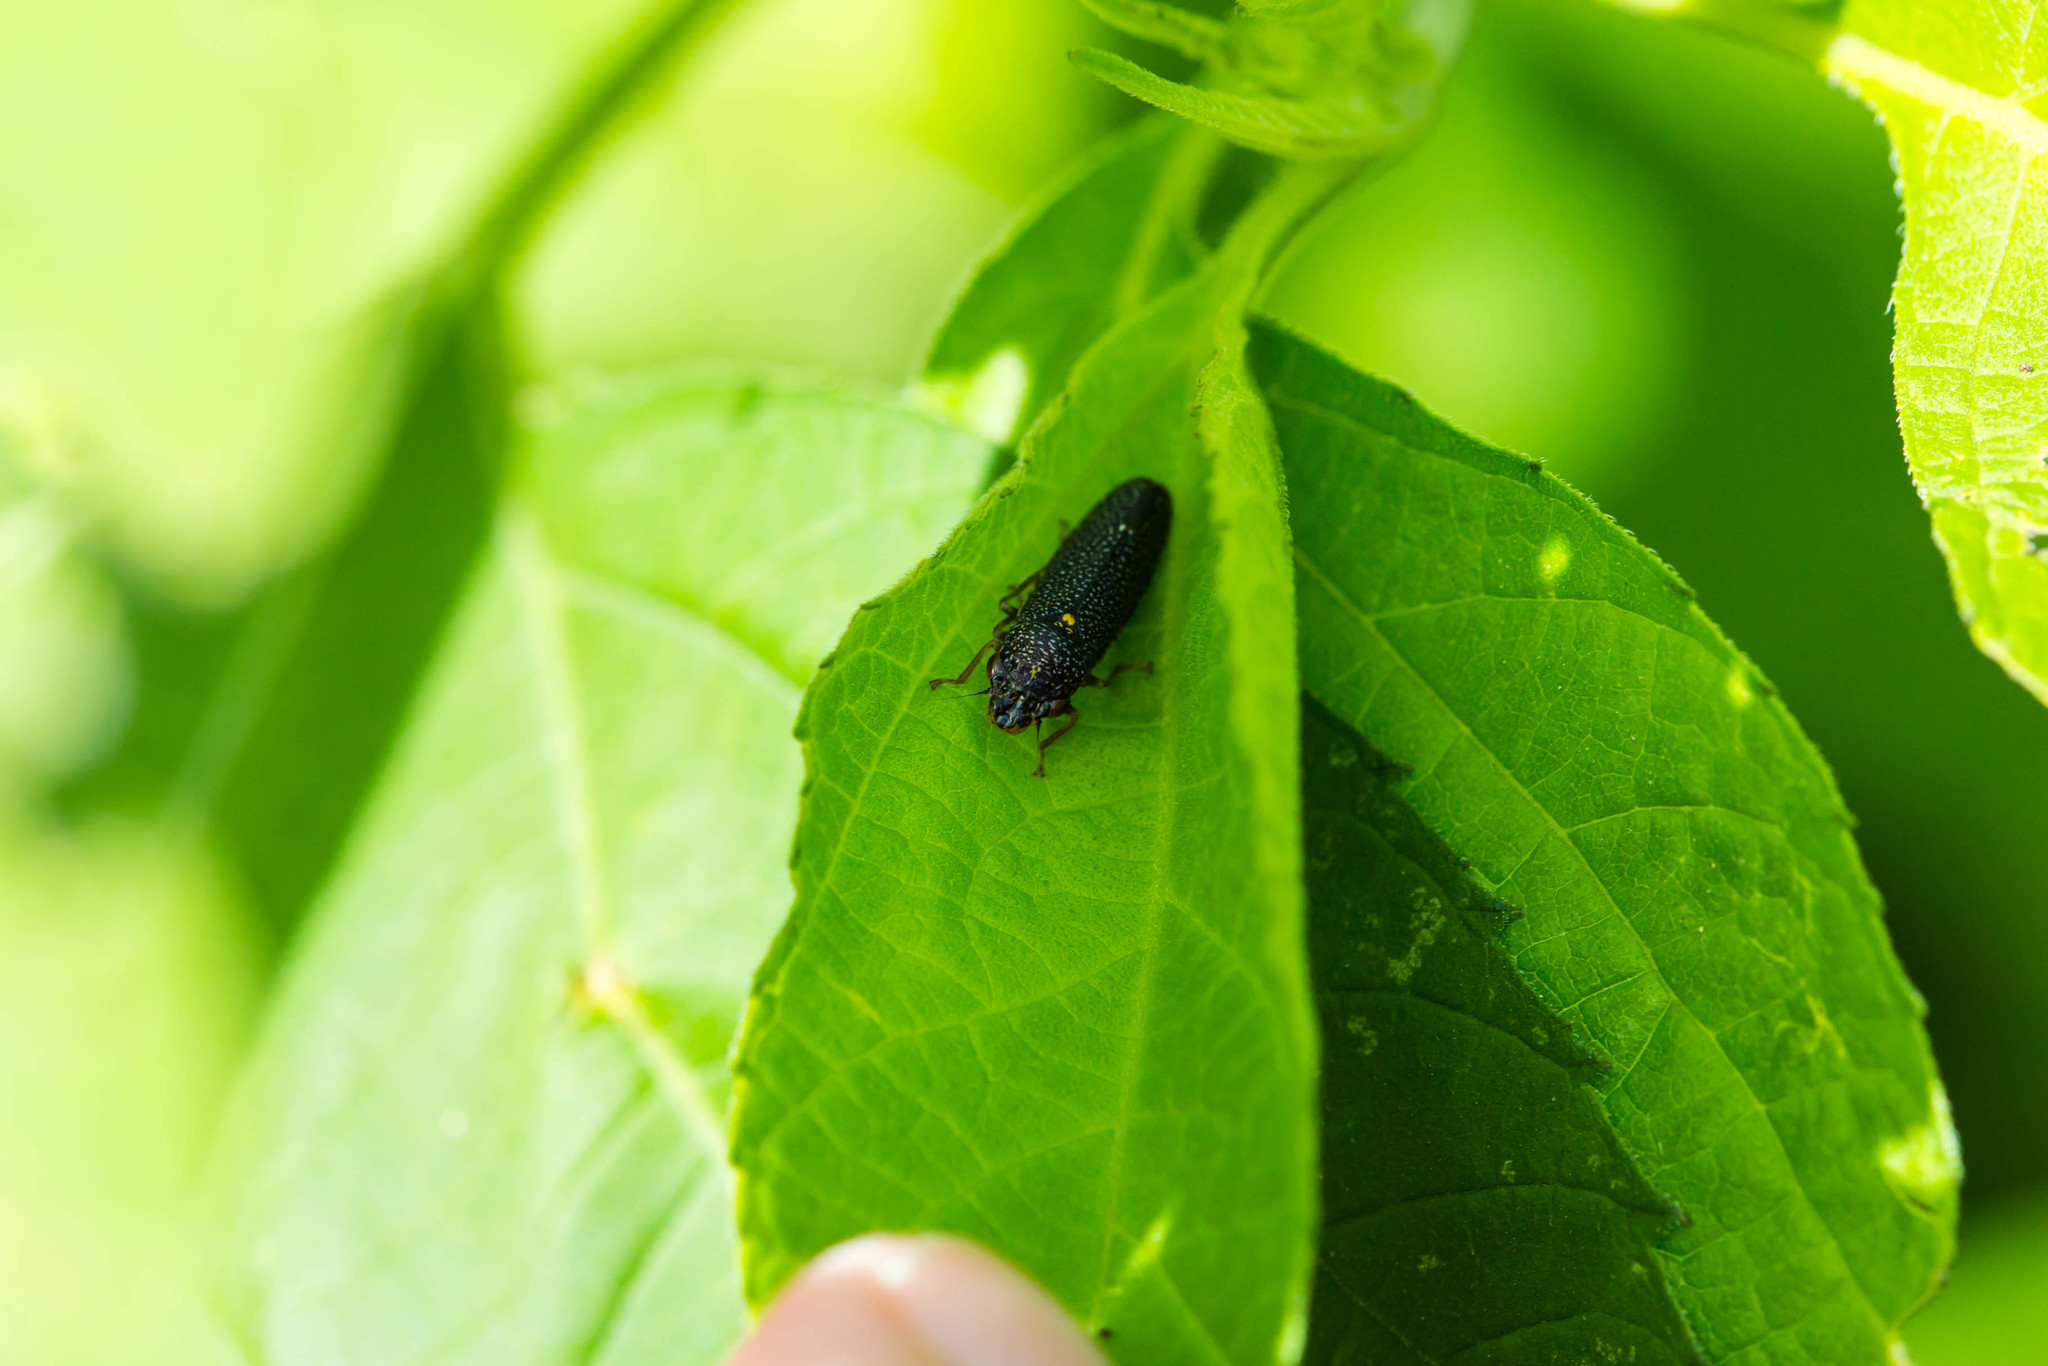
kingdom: Animalia
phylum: Arthropoda
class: Insecta
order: Hemiptera
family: Cicadellidae
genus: Paraulacizes
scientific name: Paraulacizes irrorata
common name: Speckled sharpshooter
